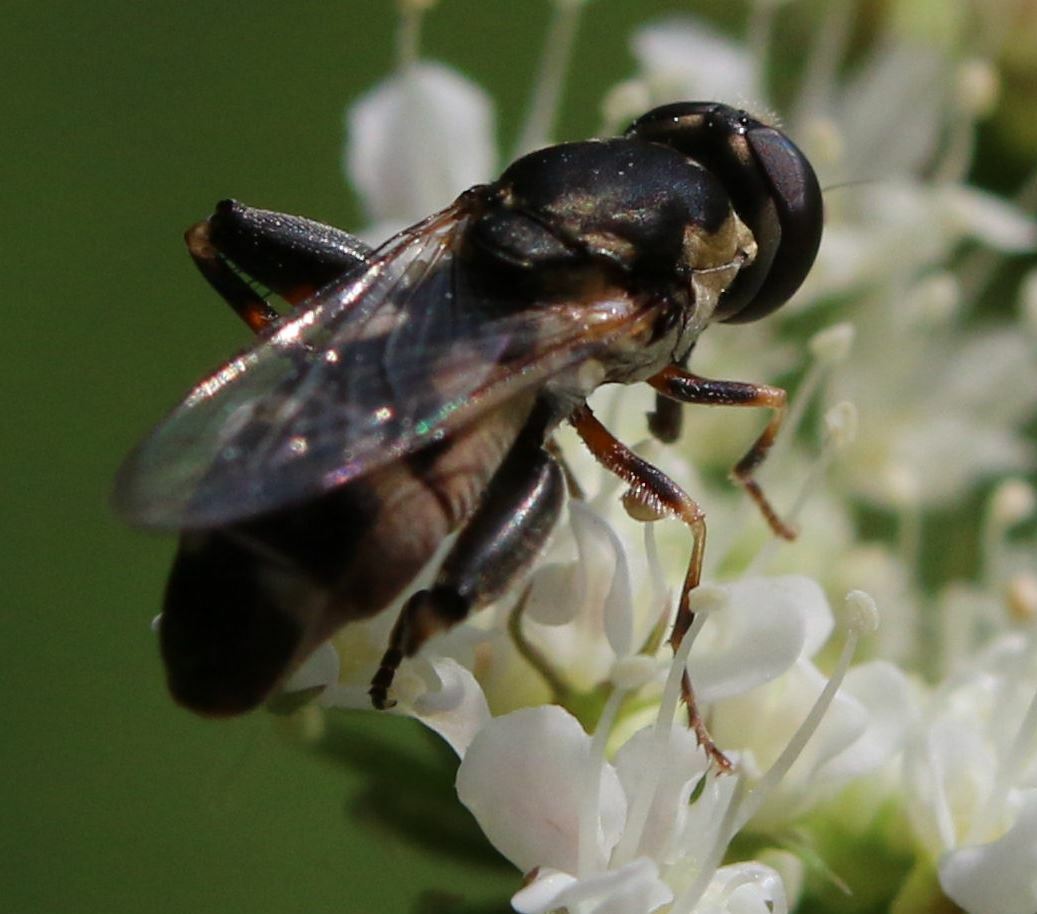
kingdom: Animalia
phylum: Arthropoda
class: Insecta
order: Diptera
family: Syrphidae
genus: Syritta
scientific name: Syritta pipiens
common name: Hover fly
